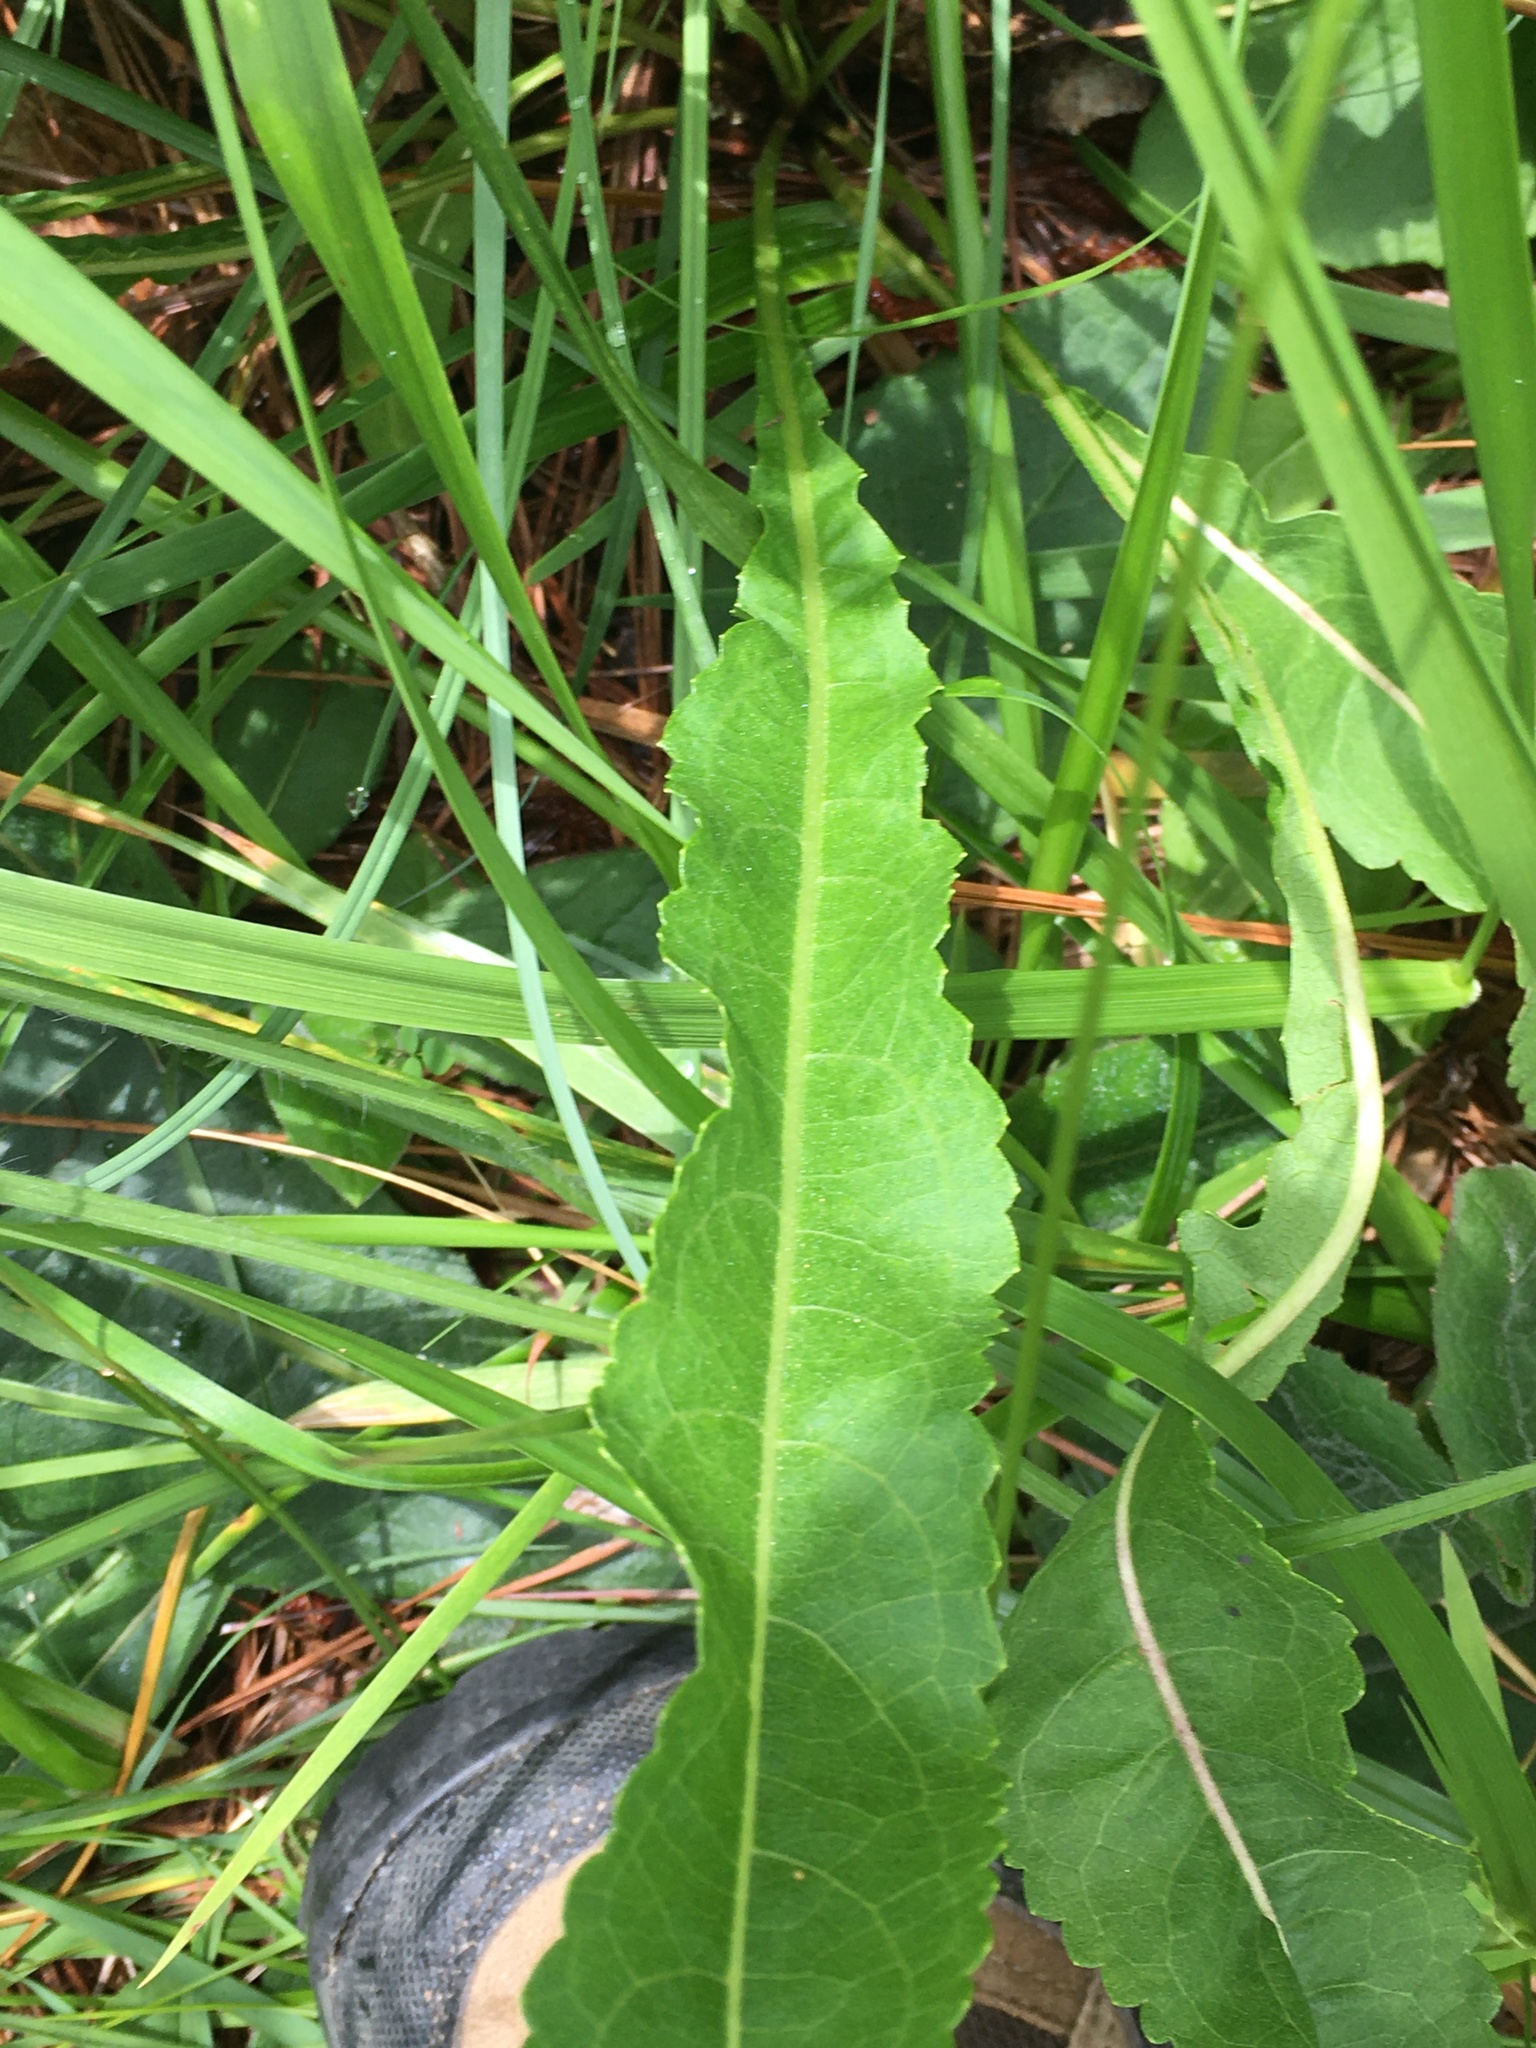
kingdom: Plantae
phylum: Tracheophyta
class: Magnoliopsida
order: Asterales
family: Asteraceae
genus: Parthenium
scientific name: Parthenium integrifolium
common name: American feverfew
